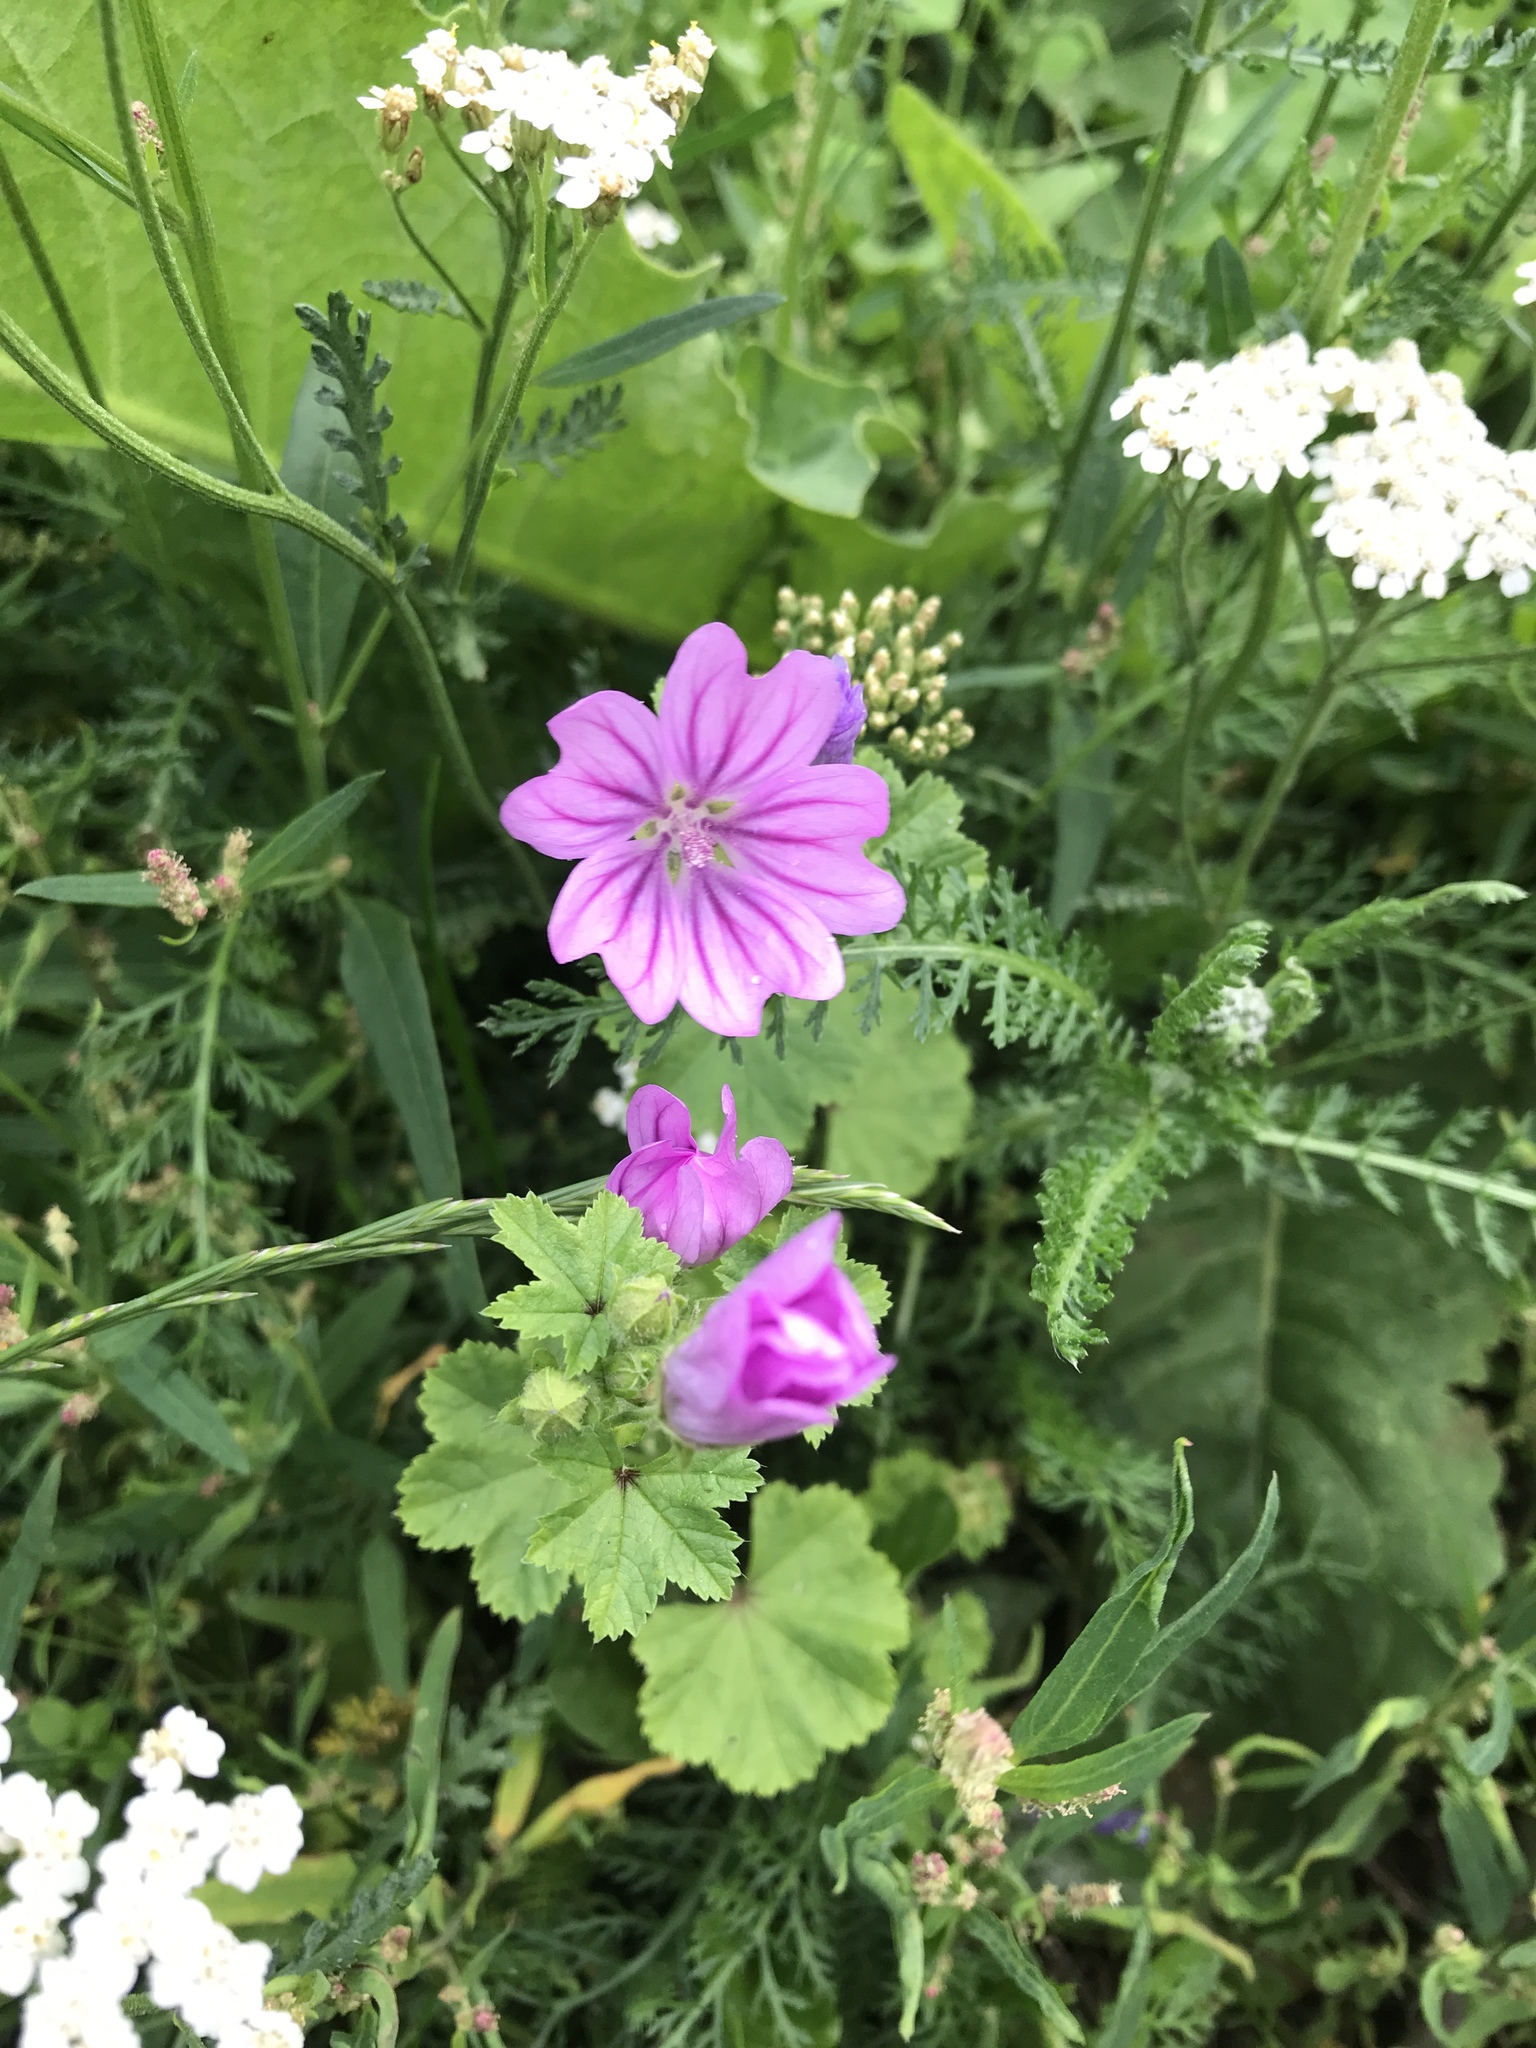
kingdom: Plantae
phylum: Tracheophyta
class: Magnoliopsida
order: Malvales
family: Malvaceae
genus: Malva
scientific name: Malva sylvestris
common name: Common mallow
